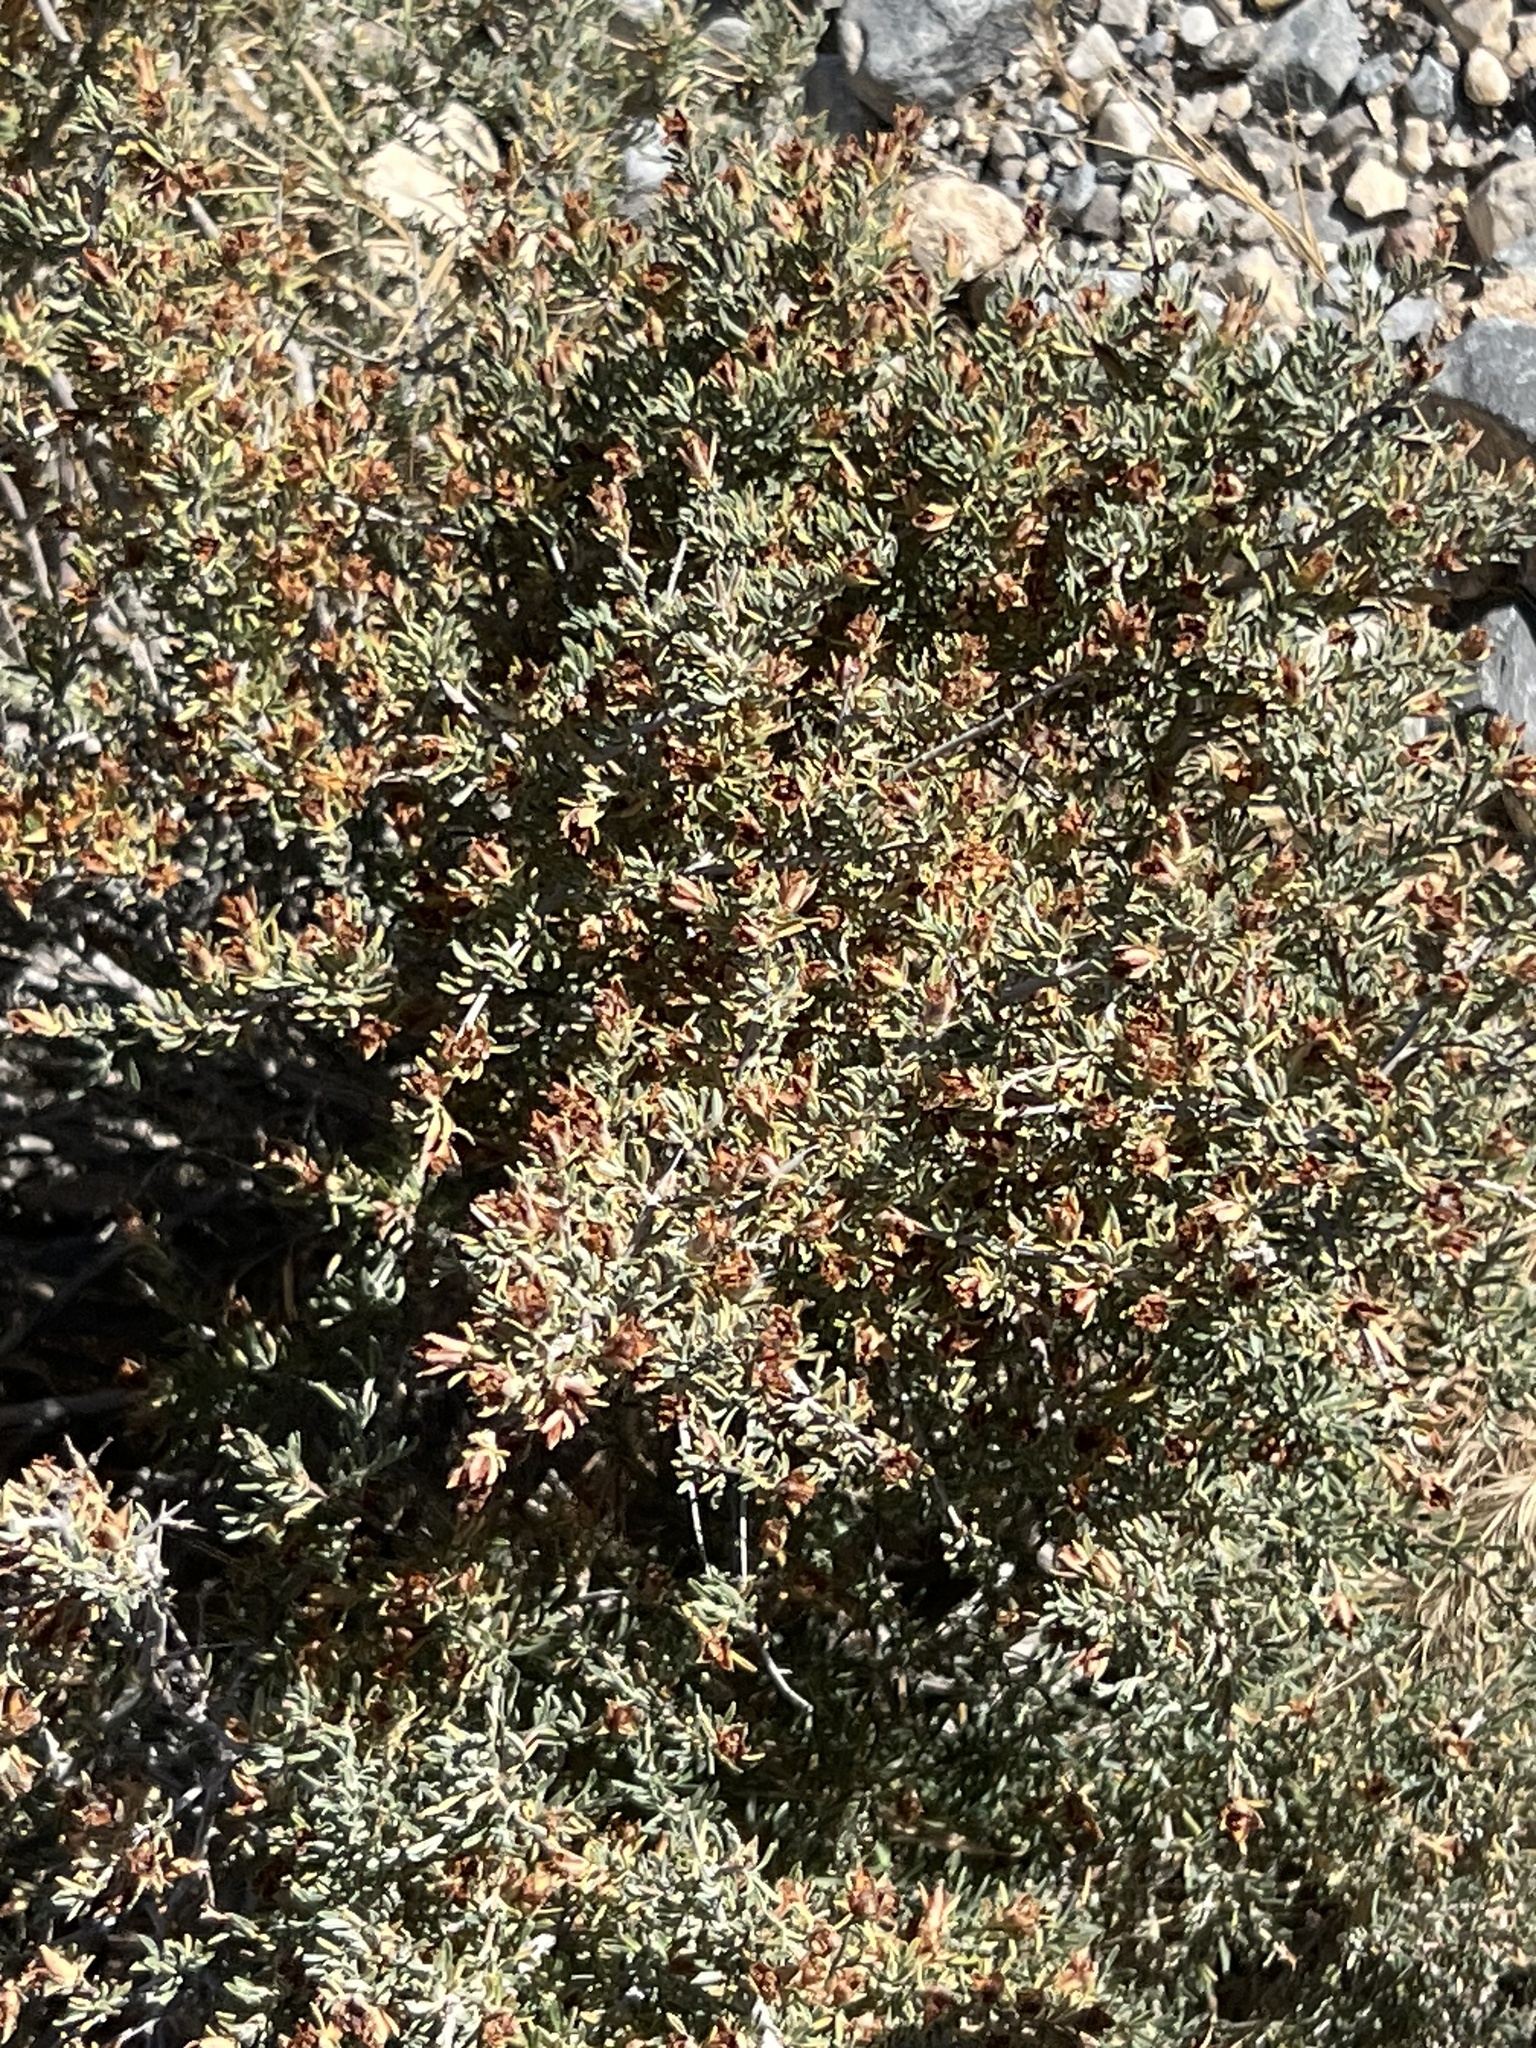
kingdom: Plantae
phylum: Tracheophyta
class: Magnoliopsida
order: Rosales
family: Rosaceae
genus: Coleogyne
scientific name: Coleogyne ramosissima
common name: Blackbrush
